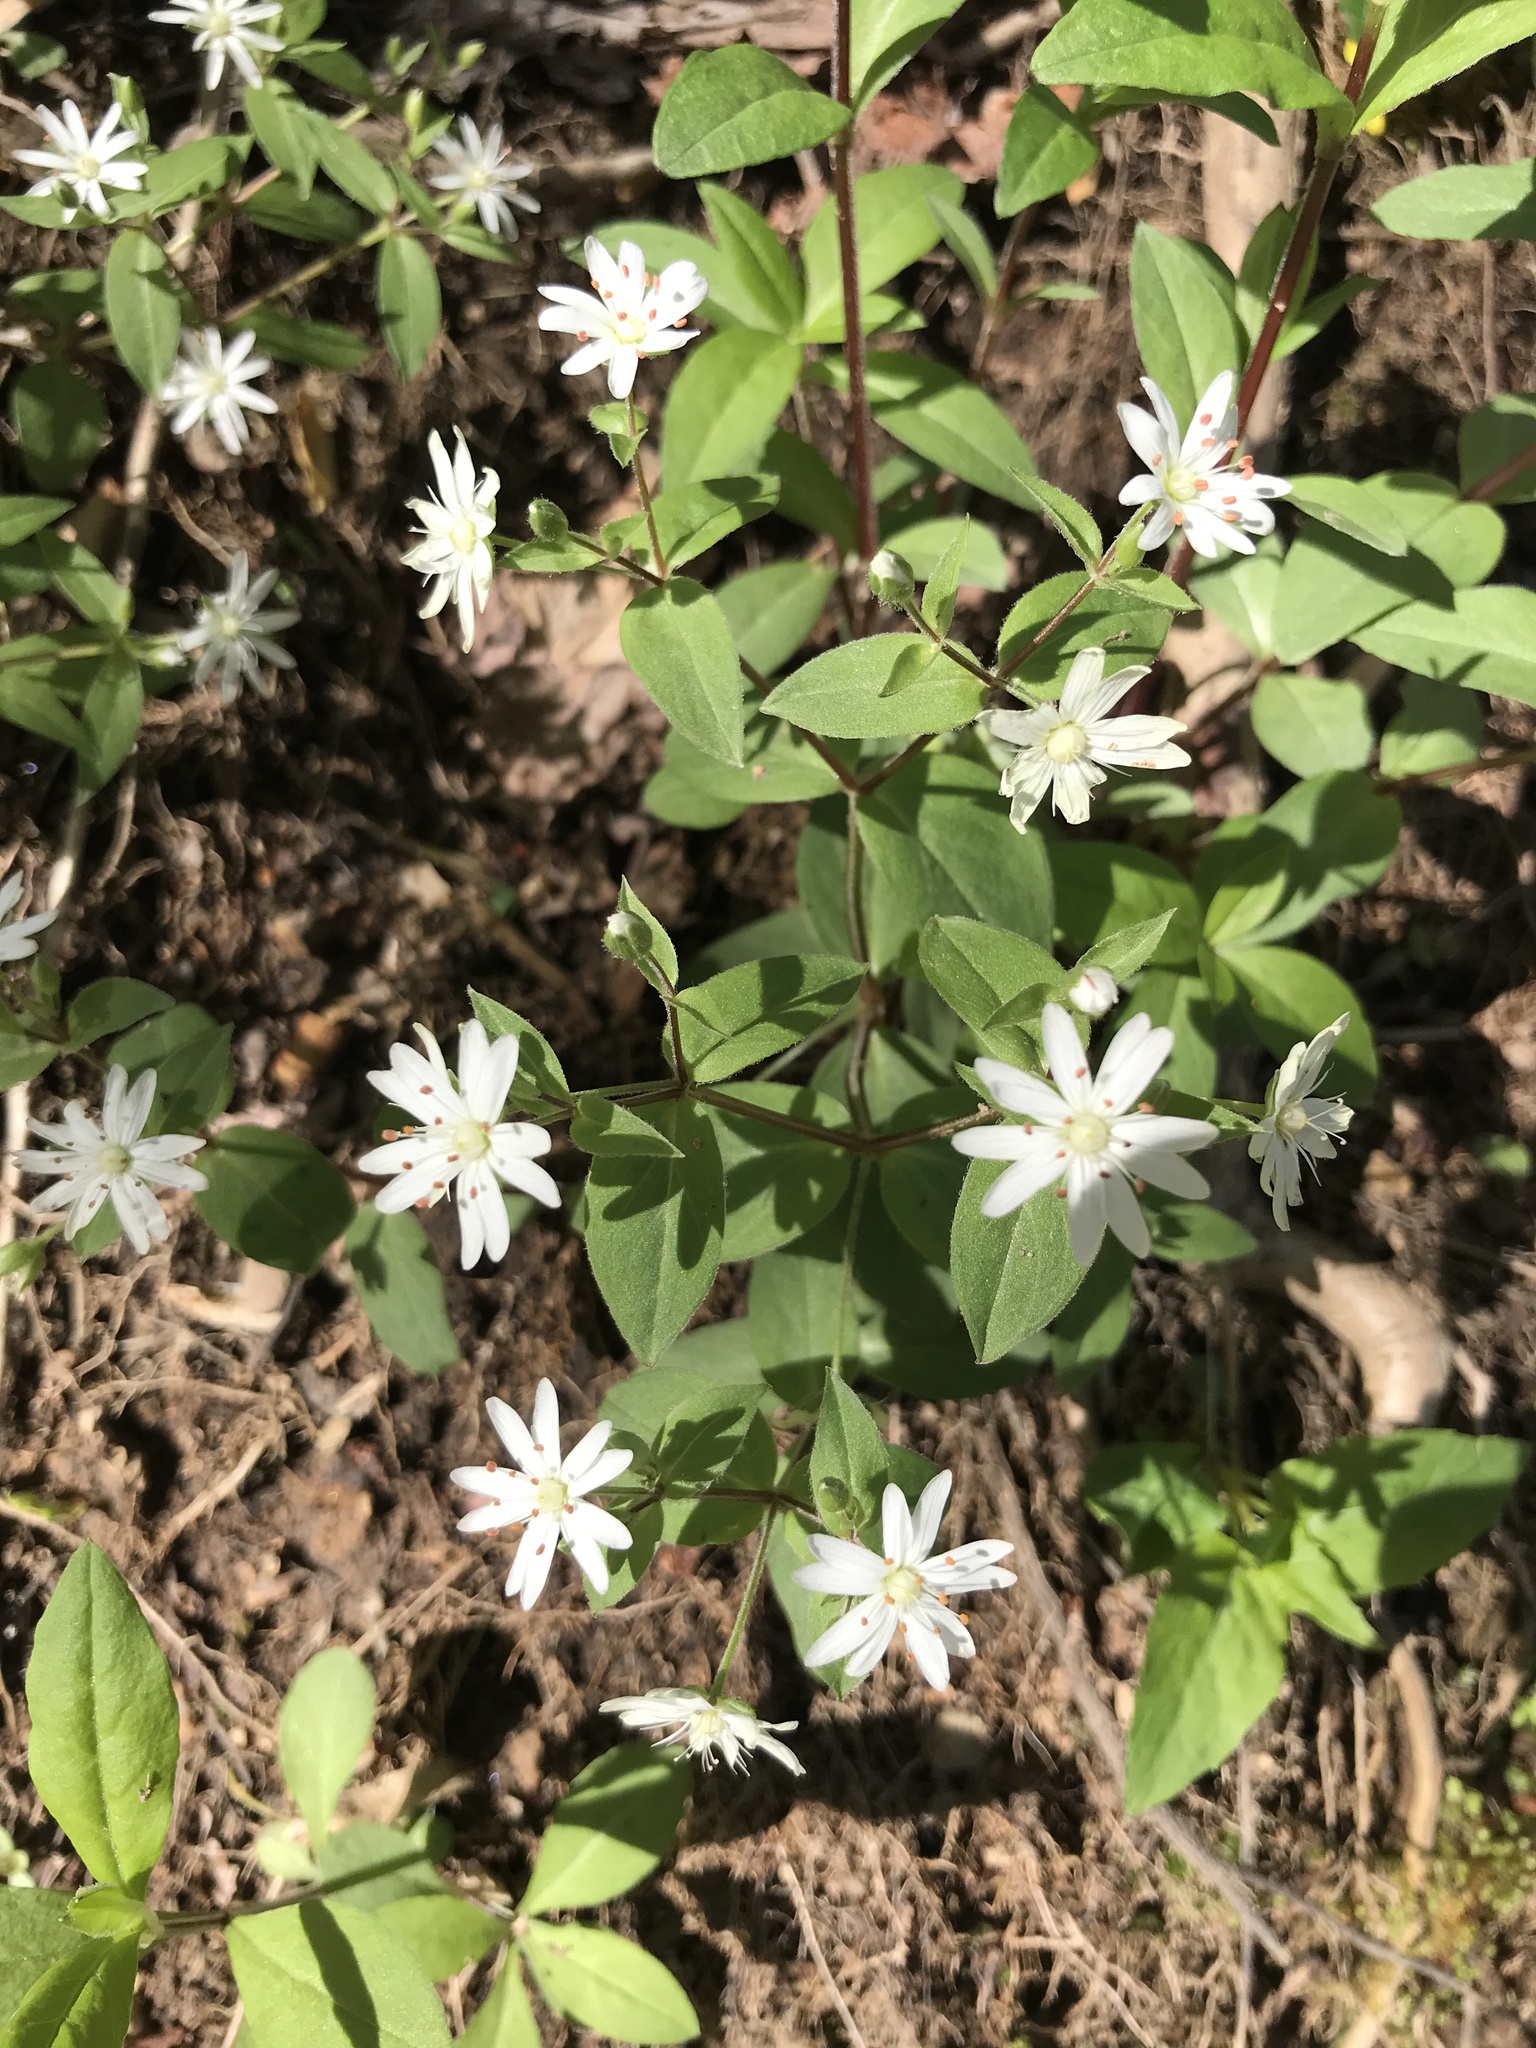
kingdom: Plantae
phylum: Tracheophyta
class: Magnoliopsida
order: Caryophyllales
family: Caryophyllaceae
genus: Stellaria
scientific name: Stellaria pubera
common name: Star chickweed
